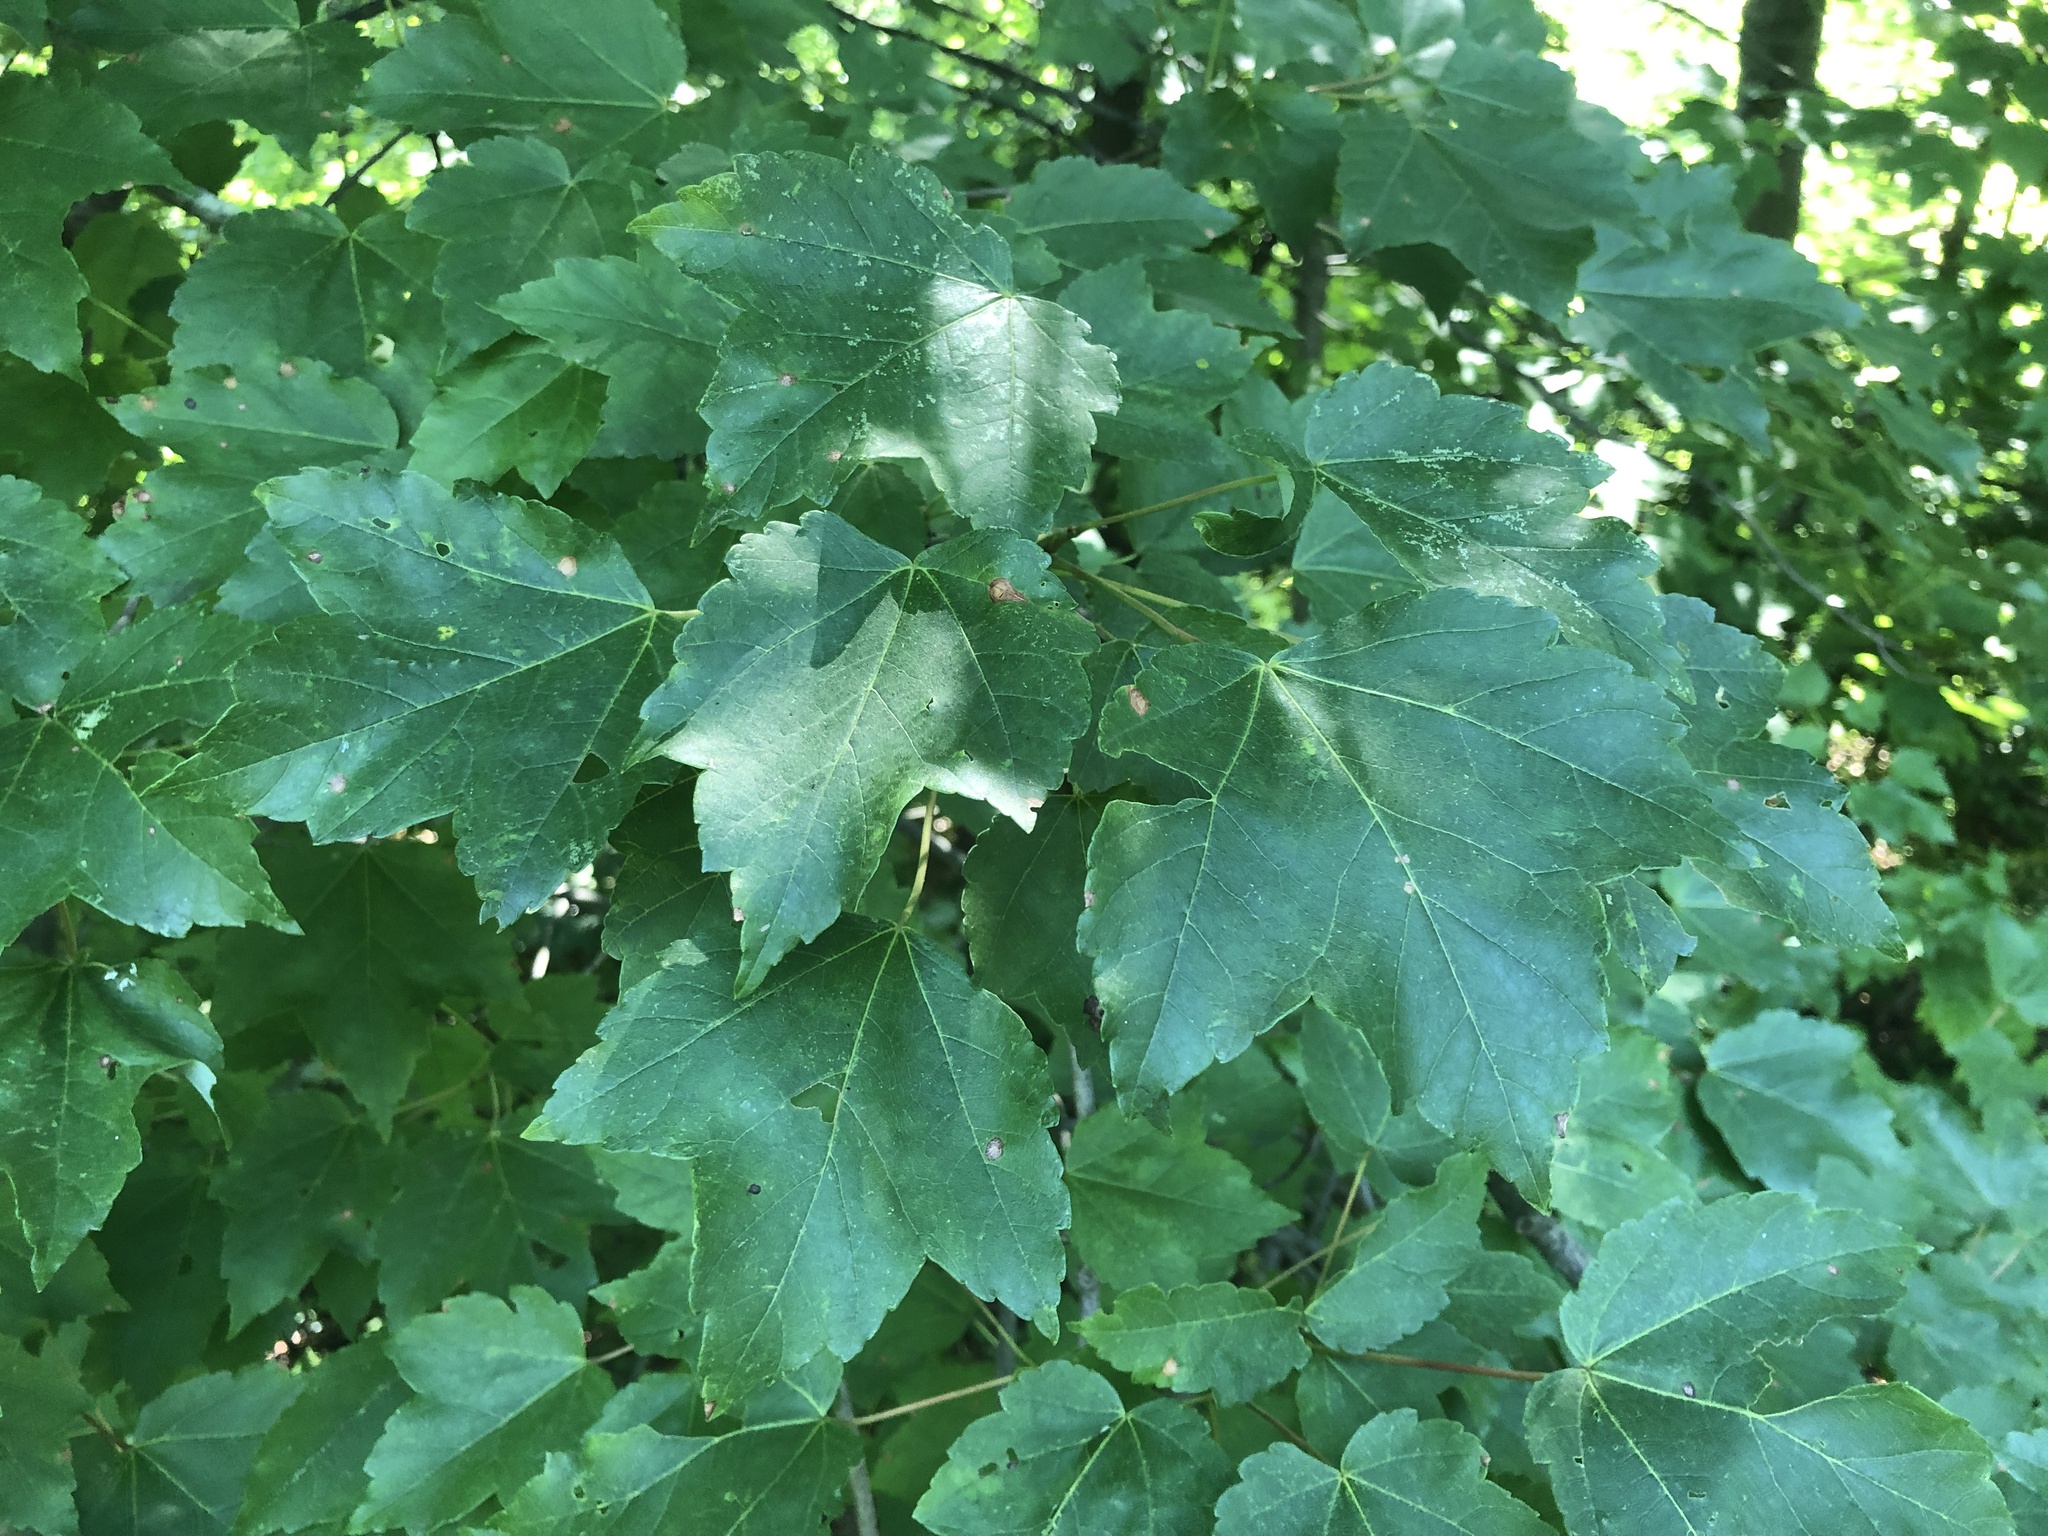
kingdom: Plantae
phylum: Tracheophyta
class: Magnoliopsida
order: Sapindales
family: Sapindaceae
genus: Acer
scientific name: Acer rubrum
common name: Red maple
